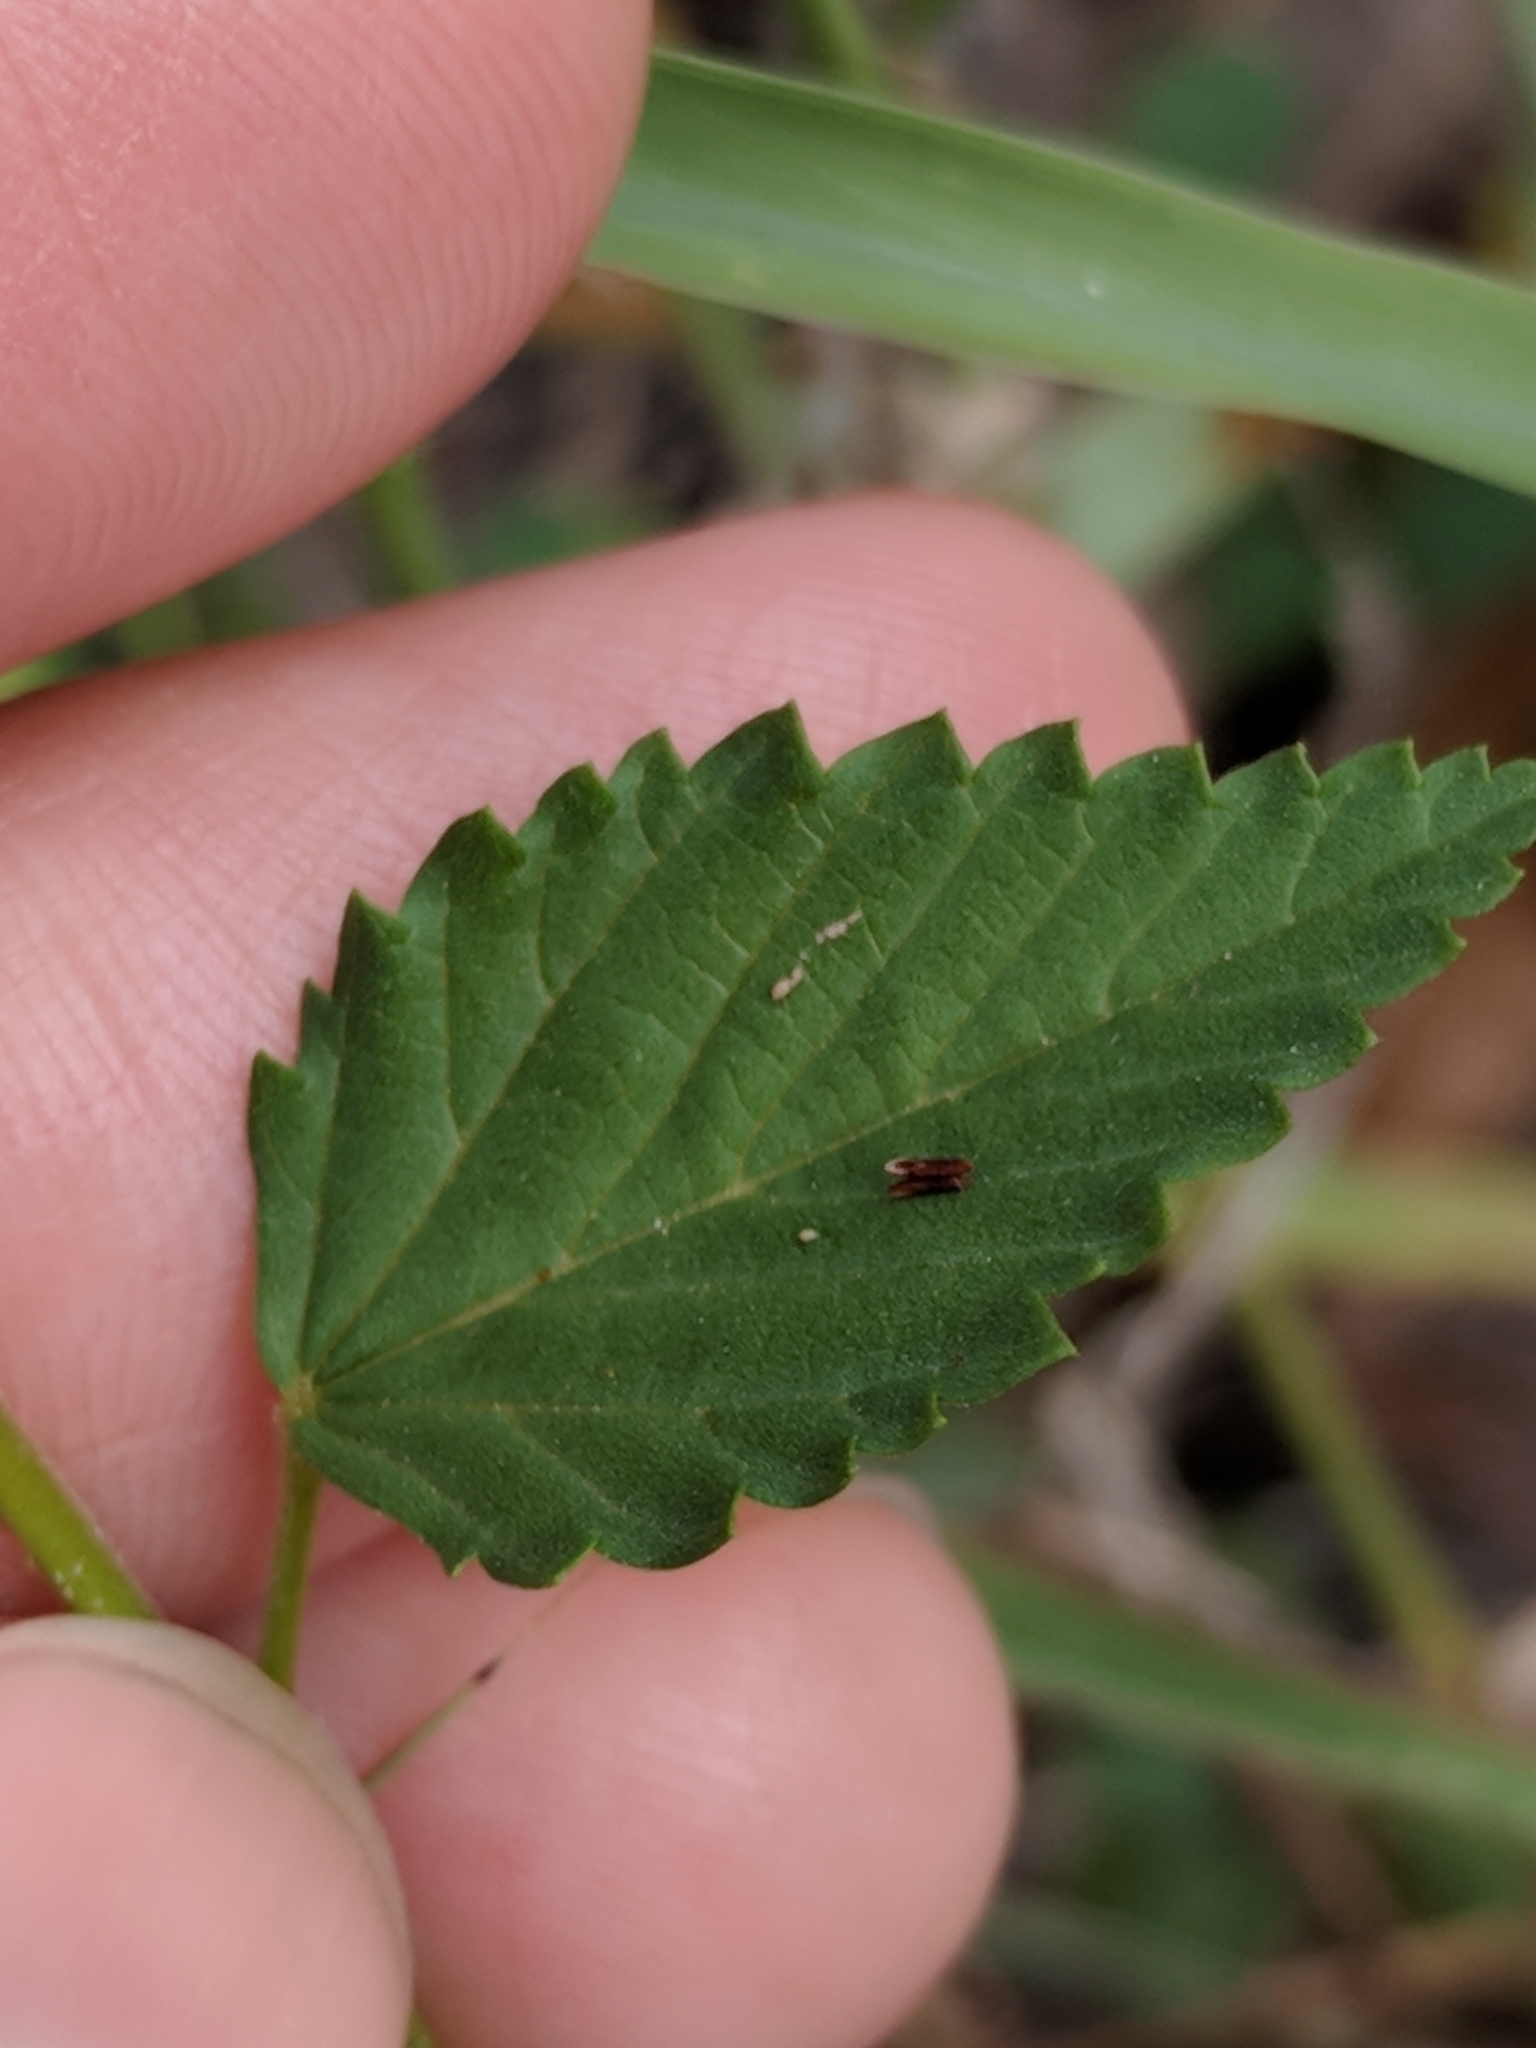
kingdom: Plantae
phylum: Tracheophyta
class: Magnoliopsida
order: Malvales
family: Malvaceae
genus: Melochia
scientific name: Melochia pyramidata
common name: Pyramidflower
